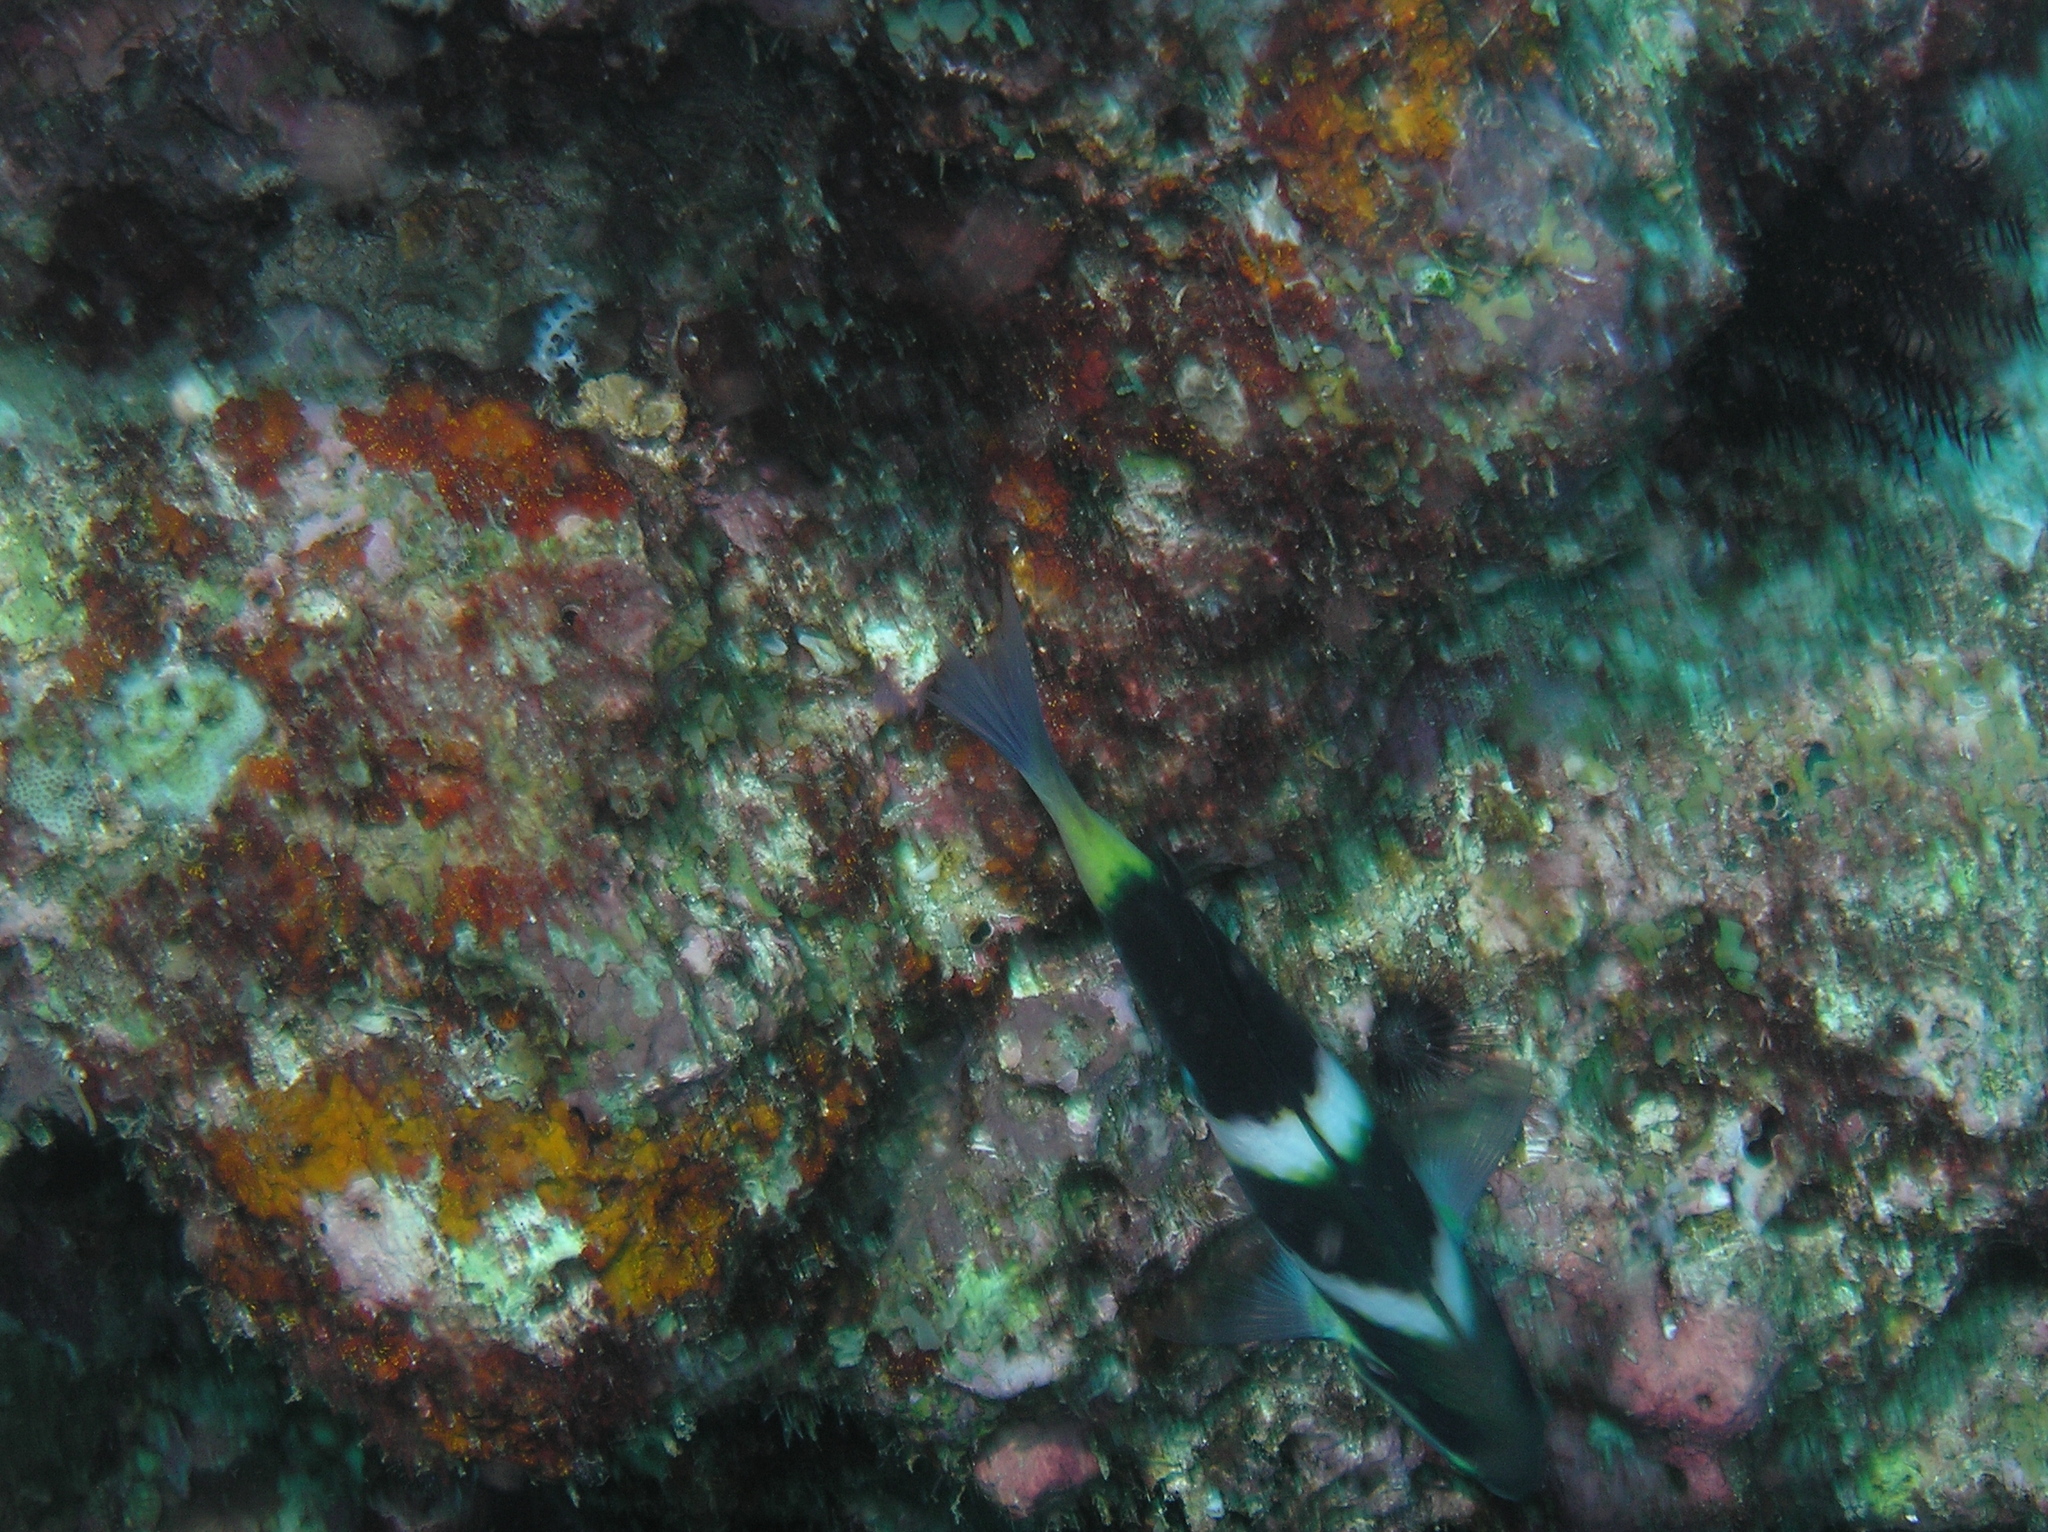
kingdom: Animalia
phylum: Chordata
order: Perciformes
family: Labridae
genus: Thalassoma
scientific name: Thalassoma nigrofasciatum
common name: Black-barred wrasse
